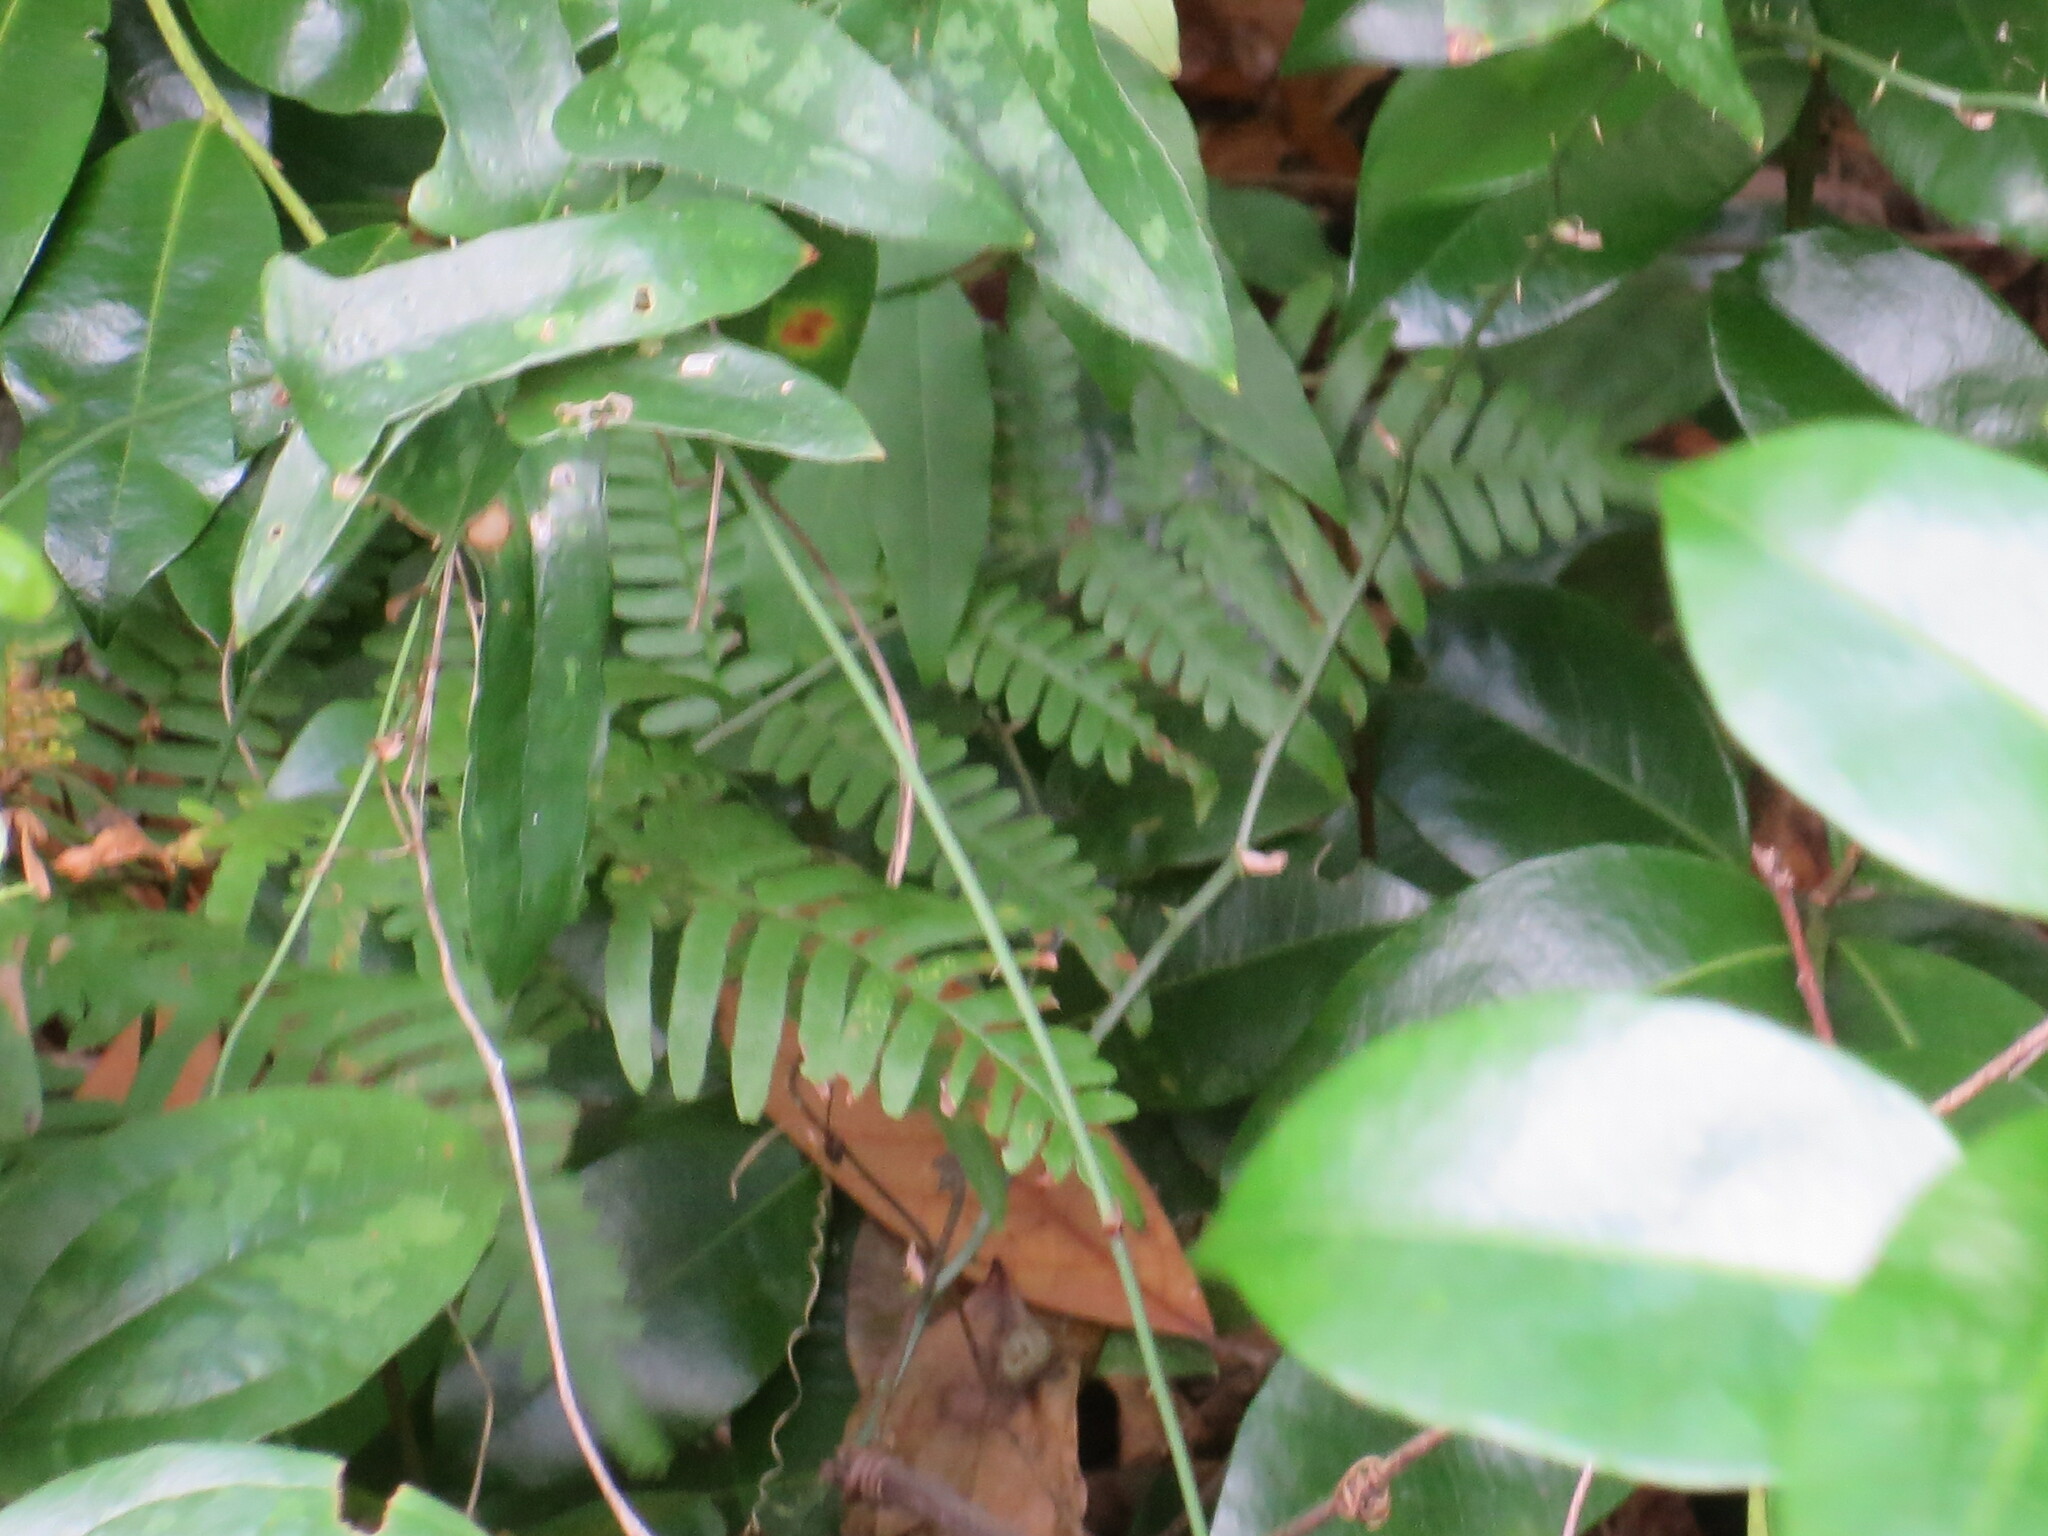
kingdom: Plantae
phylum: Tracheophyta
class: Polypodiopsida
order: Polypodiales
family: Dennstaedtiaceae
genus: Pteridium
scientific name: Pteridium
